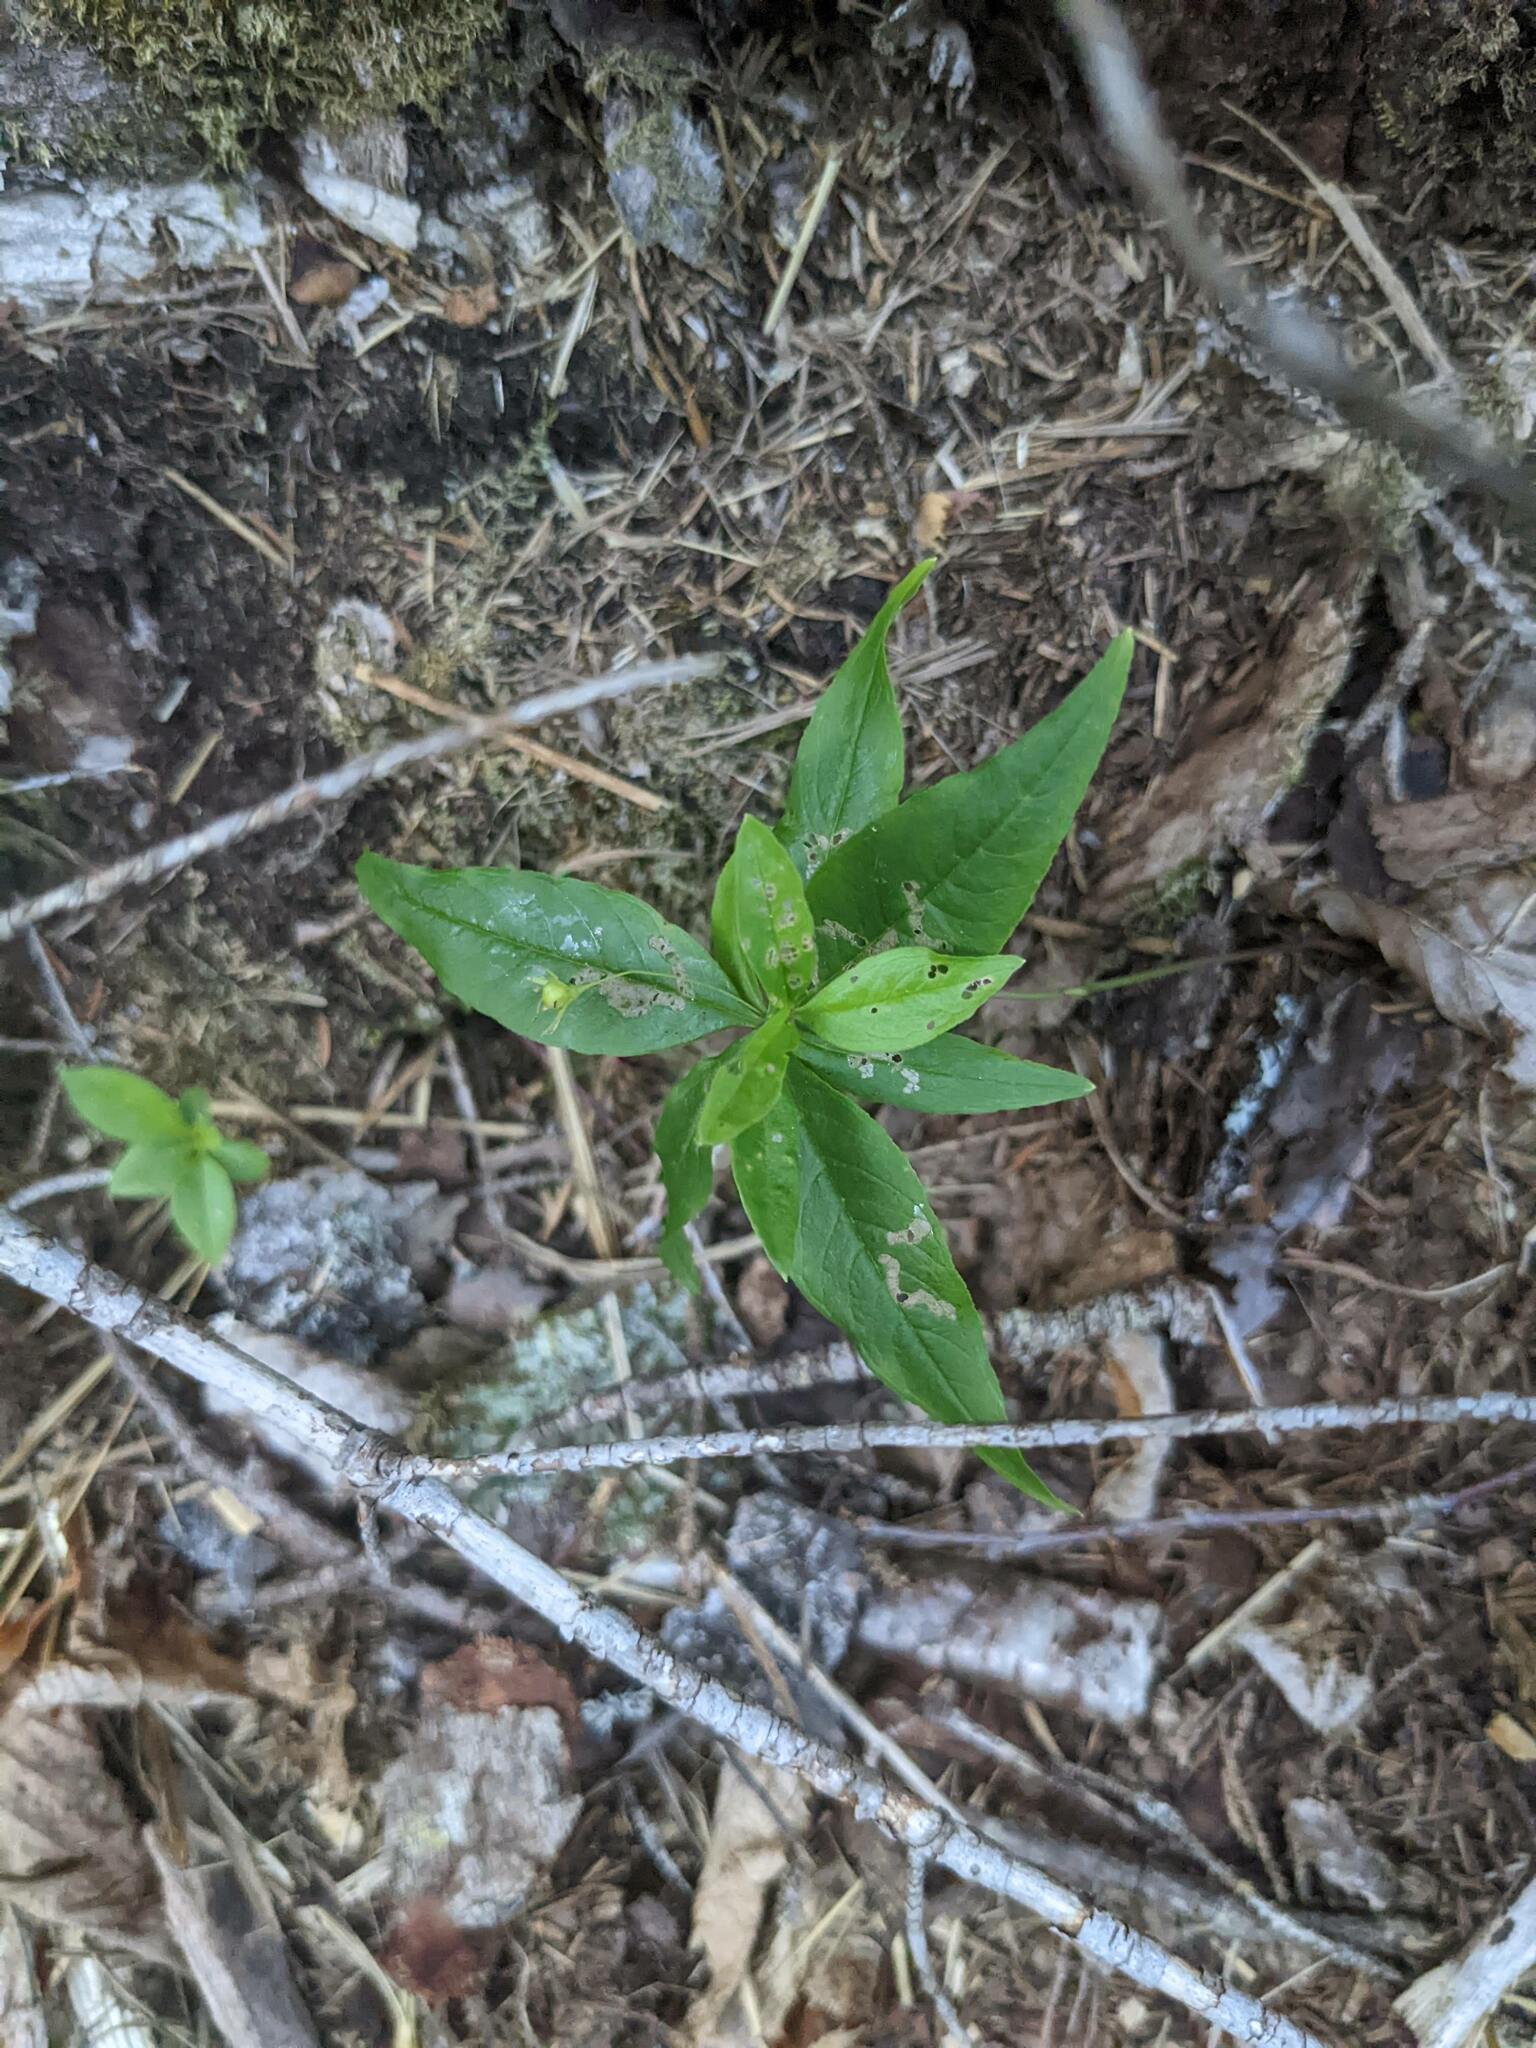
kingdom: Plantae
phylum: Tracheophyta
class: Magnoliopsida
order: Ericales
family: Primulaceae
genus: Lysimachia
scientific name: Lysimachia borealis
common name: American starflower
